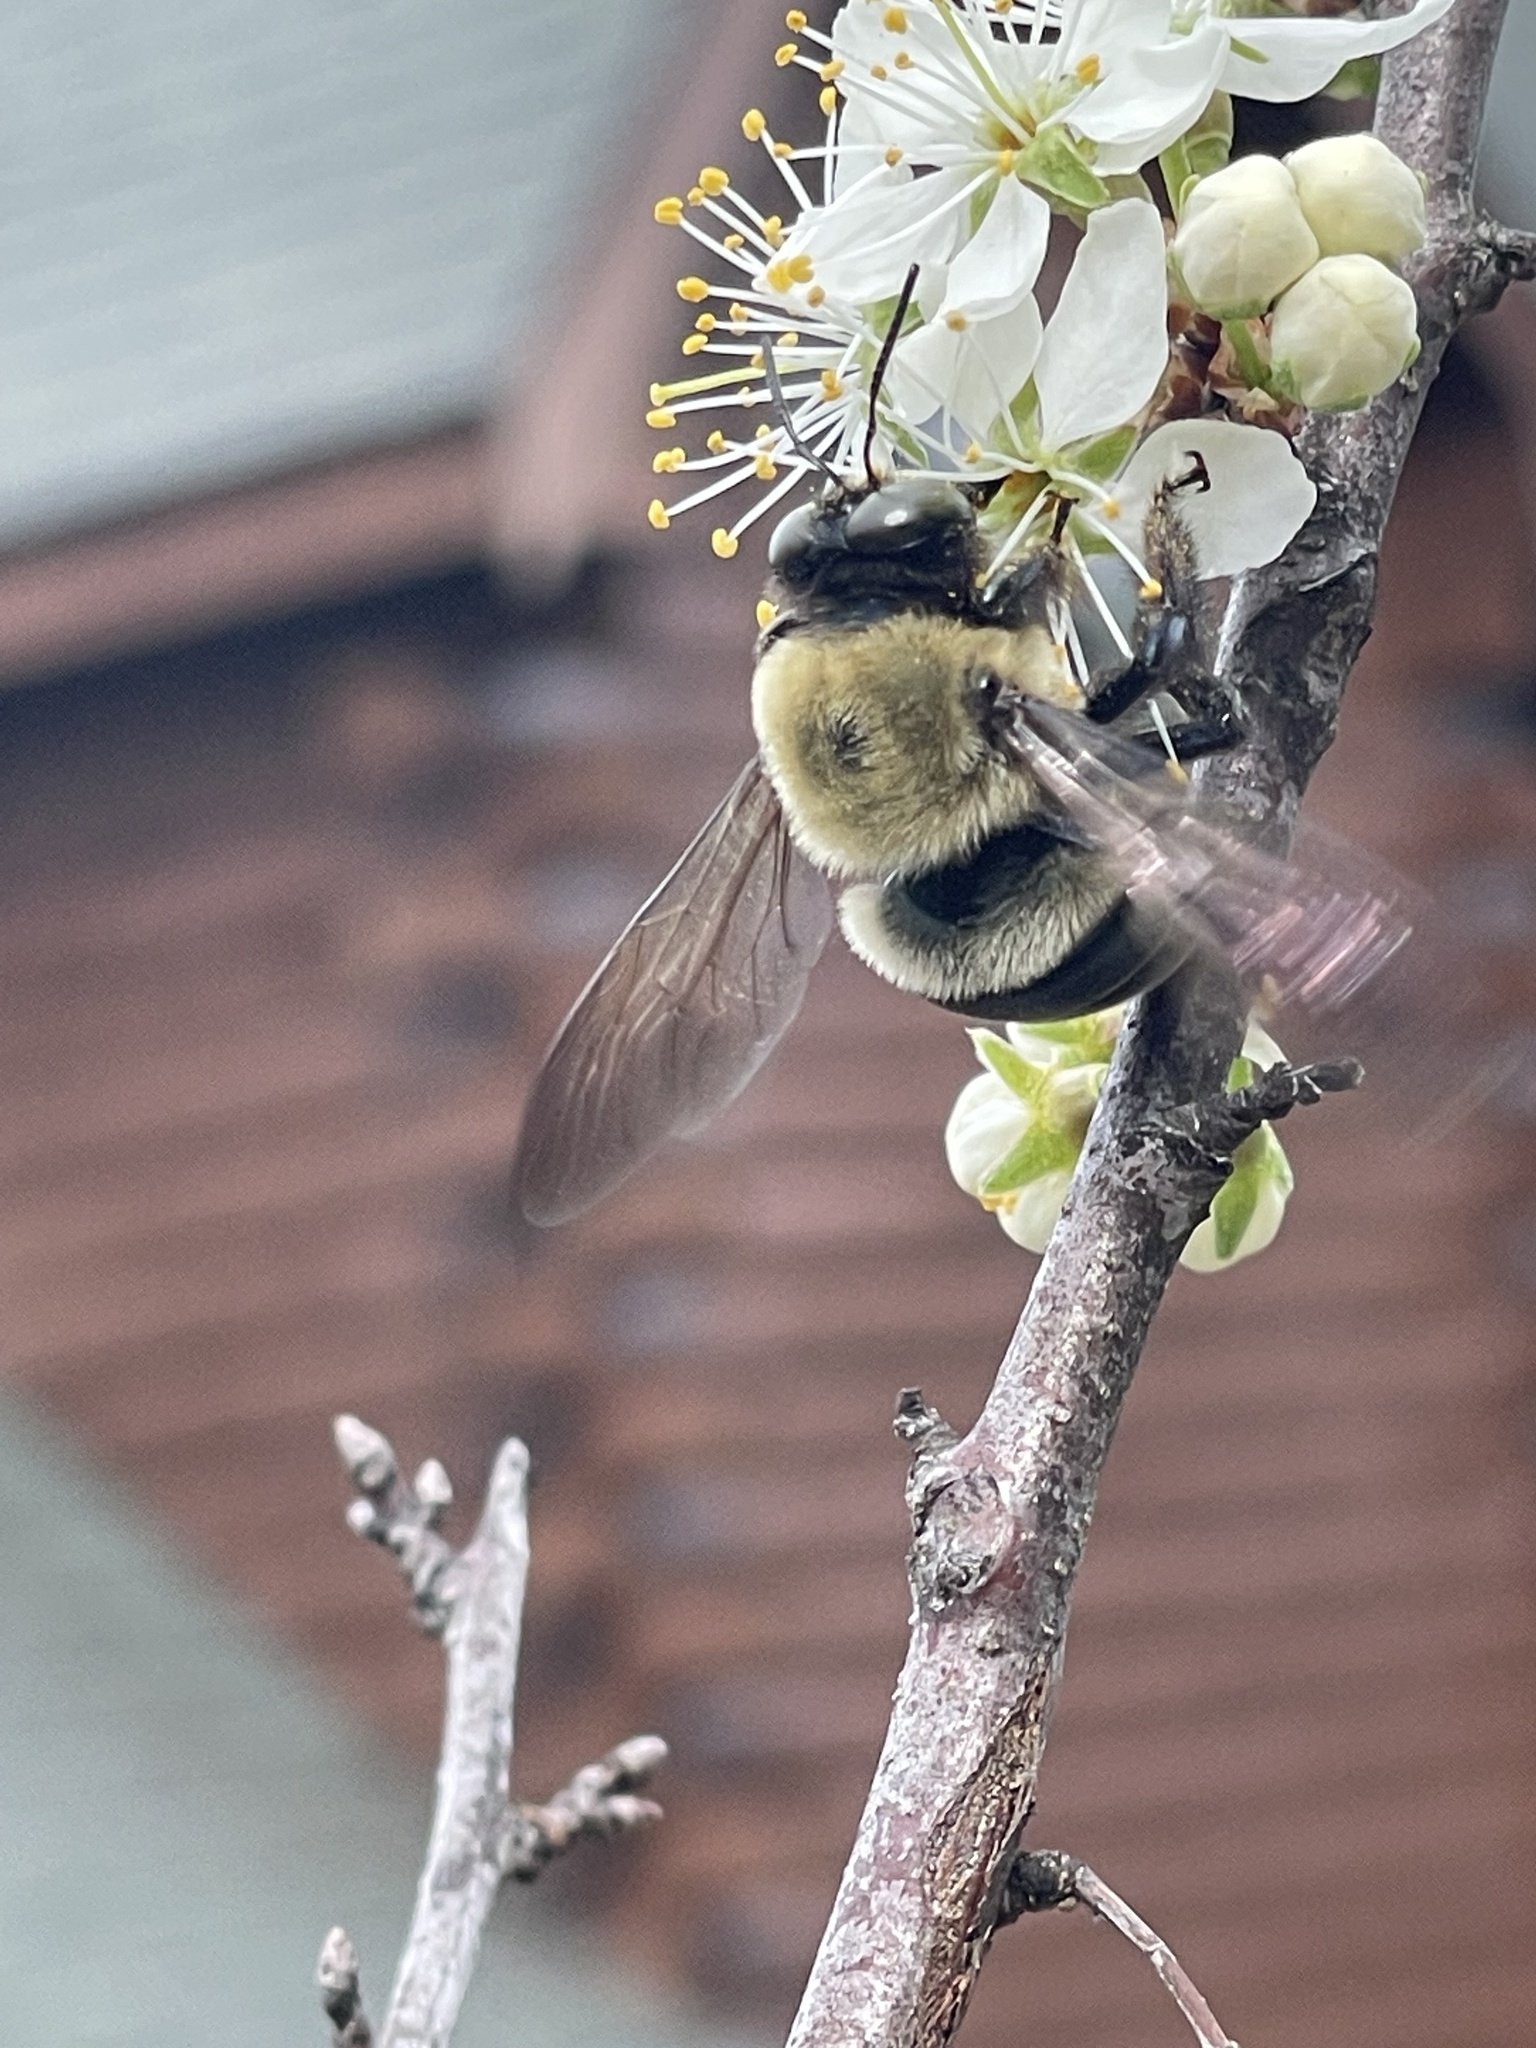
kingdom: Animalia
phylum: Arthropoda
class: Insecta
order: Hymenoptera
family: Apidae
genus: Xylocopa
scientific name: Xylocopa virginica
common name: Carpenter bee
